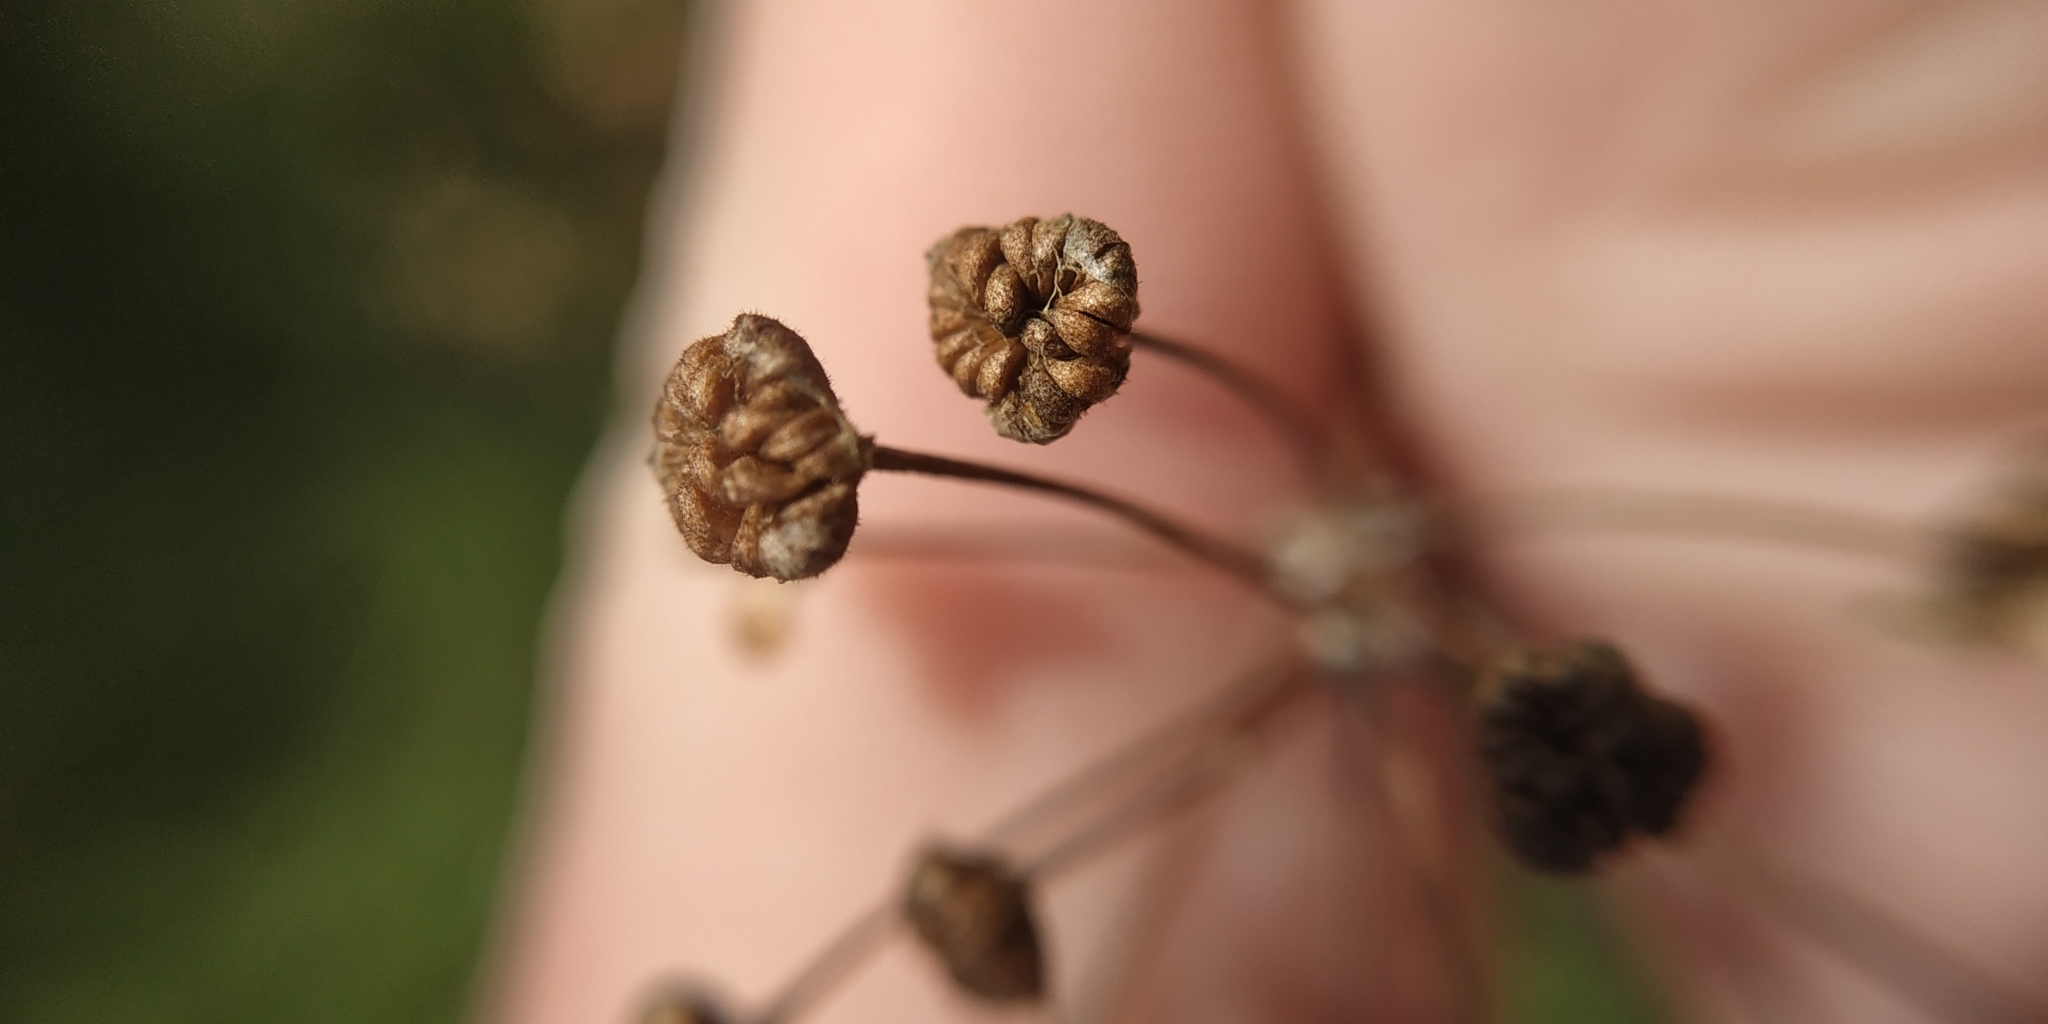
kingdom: Plantae
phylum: Tracheophyta
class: Liliopsida
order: Alismatales
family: Alismataceae
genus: Alisma
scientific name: Alisma plantago-aquatica
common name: Water-plantain
